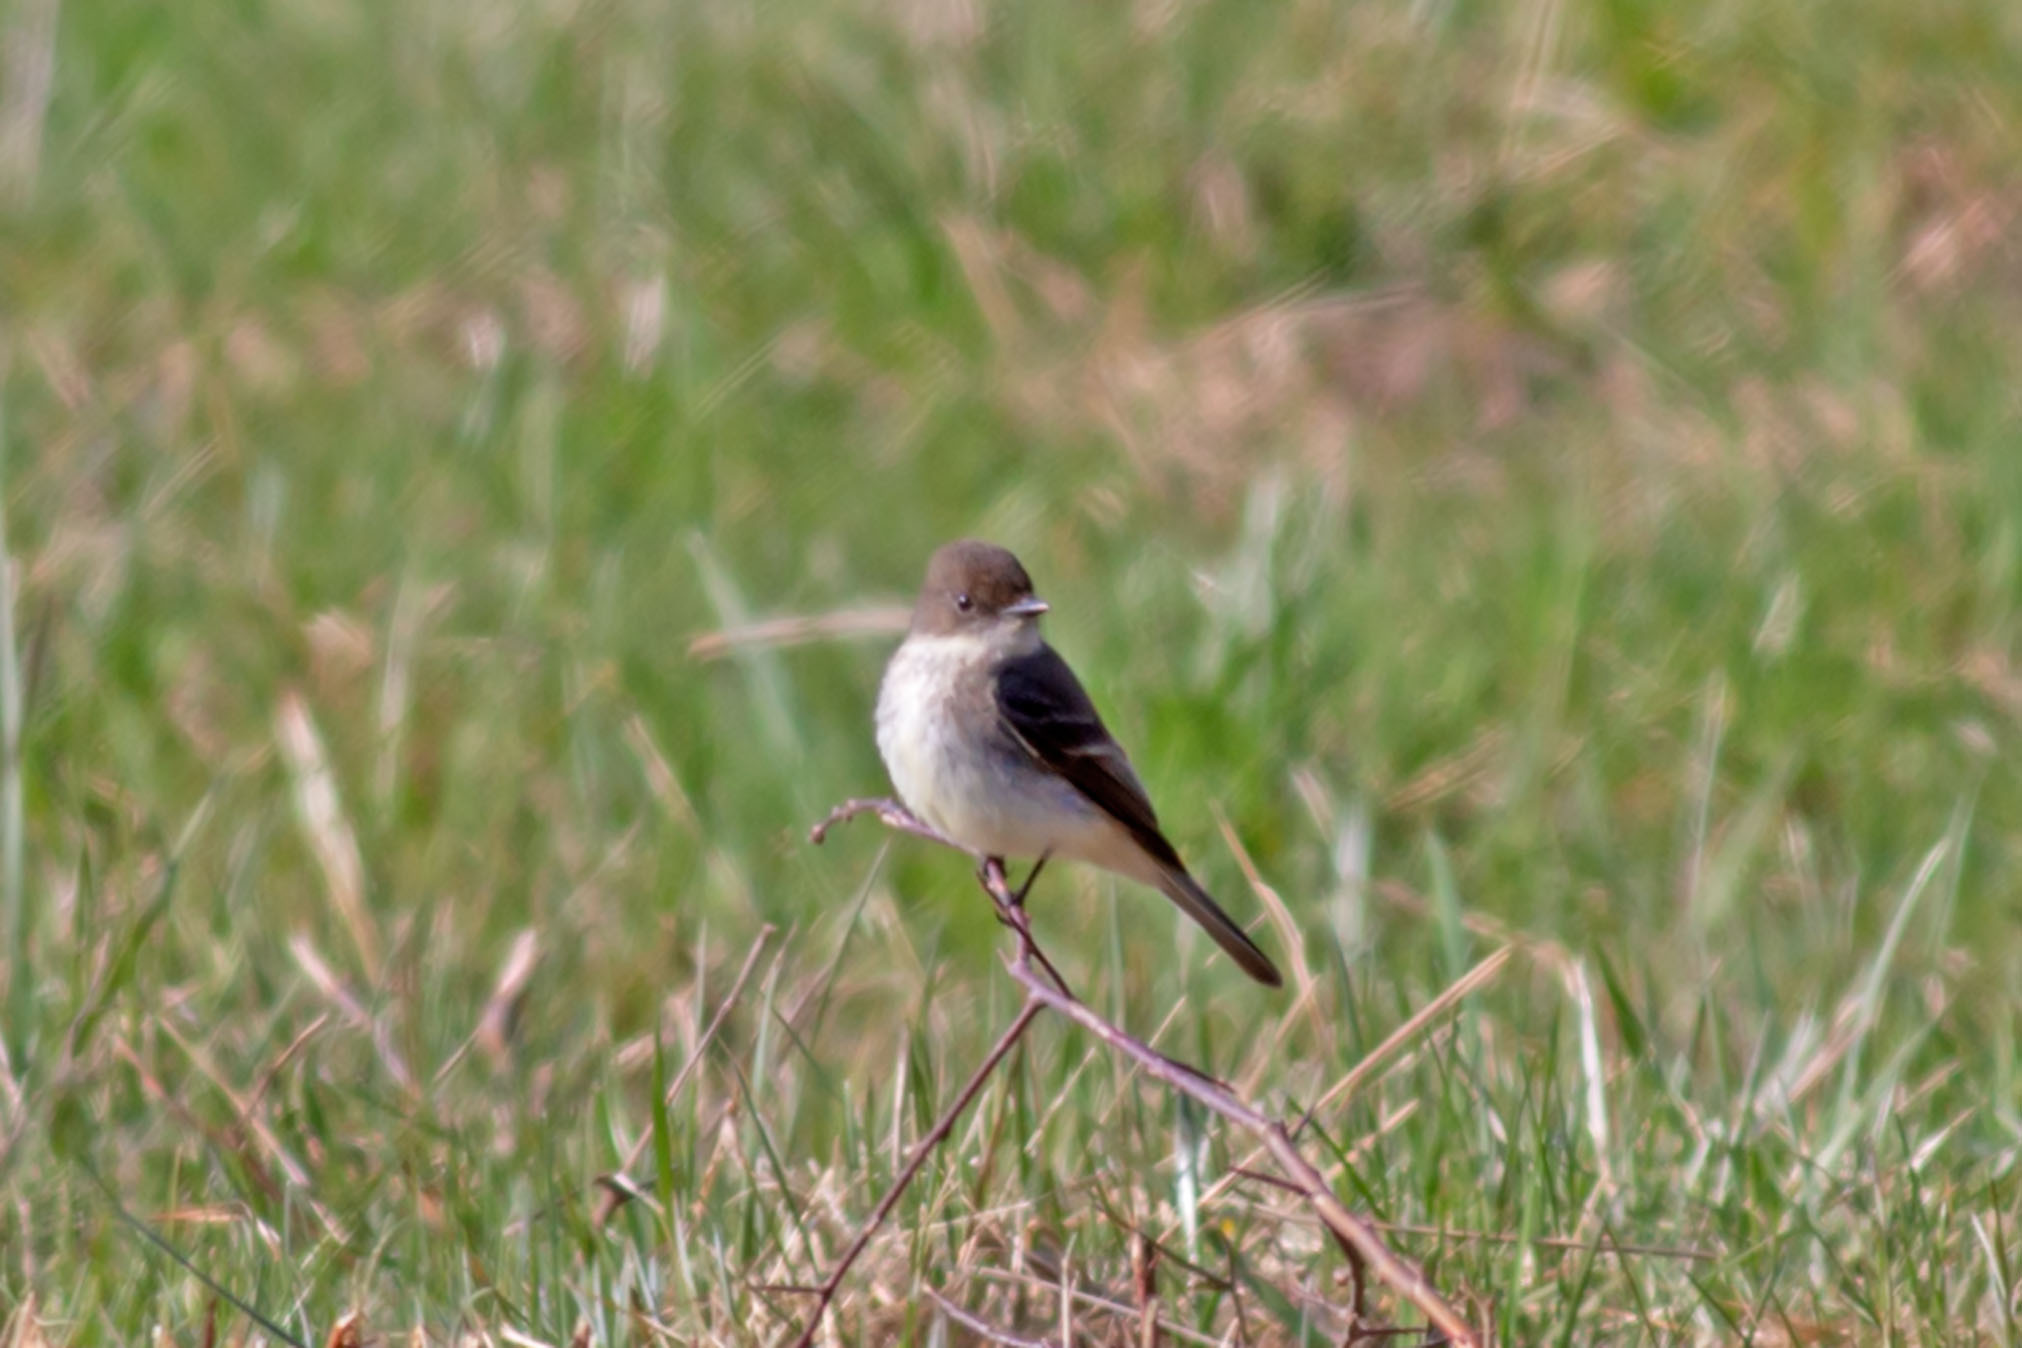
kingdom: Animalia
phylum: Chordata
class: Aves
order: Passeriformes
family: Tyrannidae
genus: Sayornis
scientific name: Sayornis phoebe
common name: Eastern phoebe
